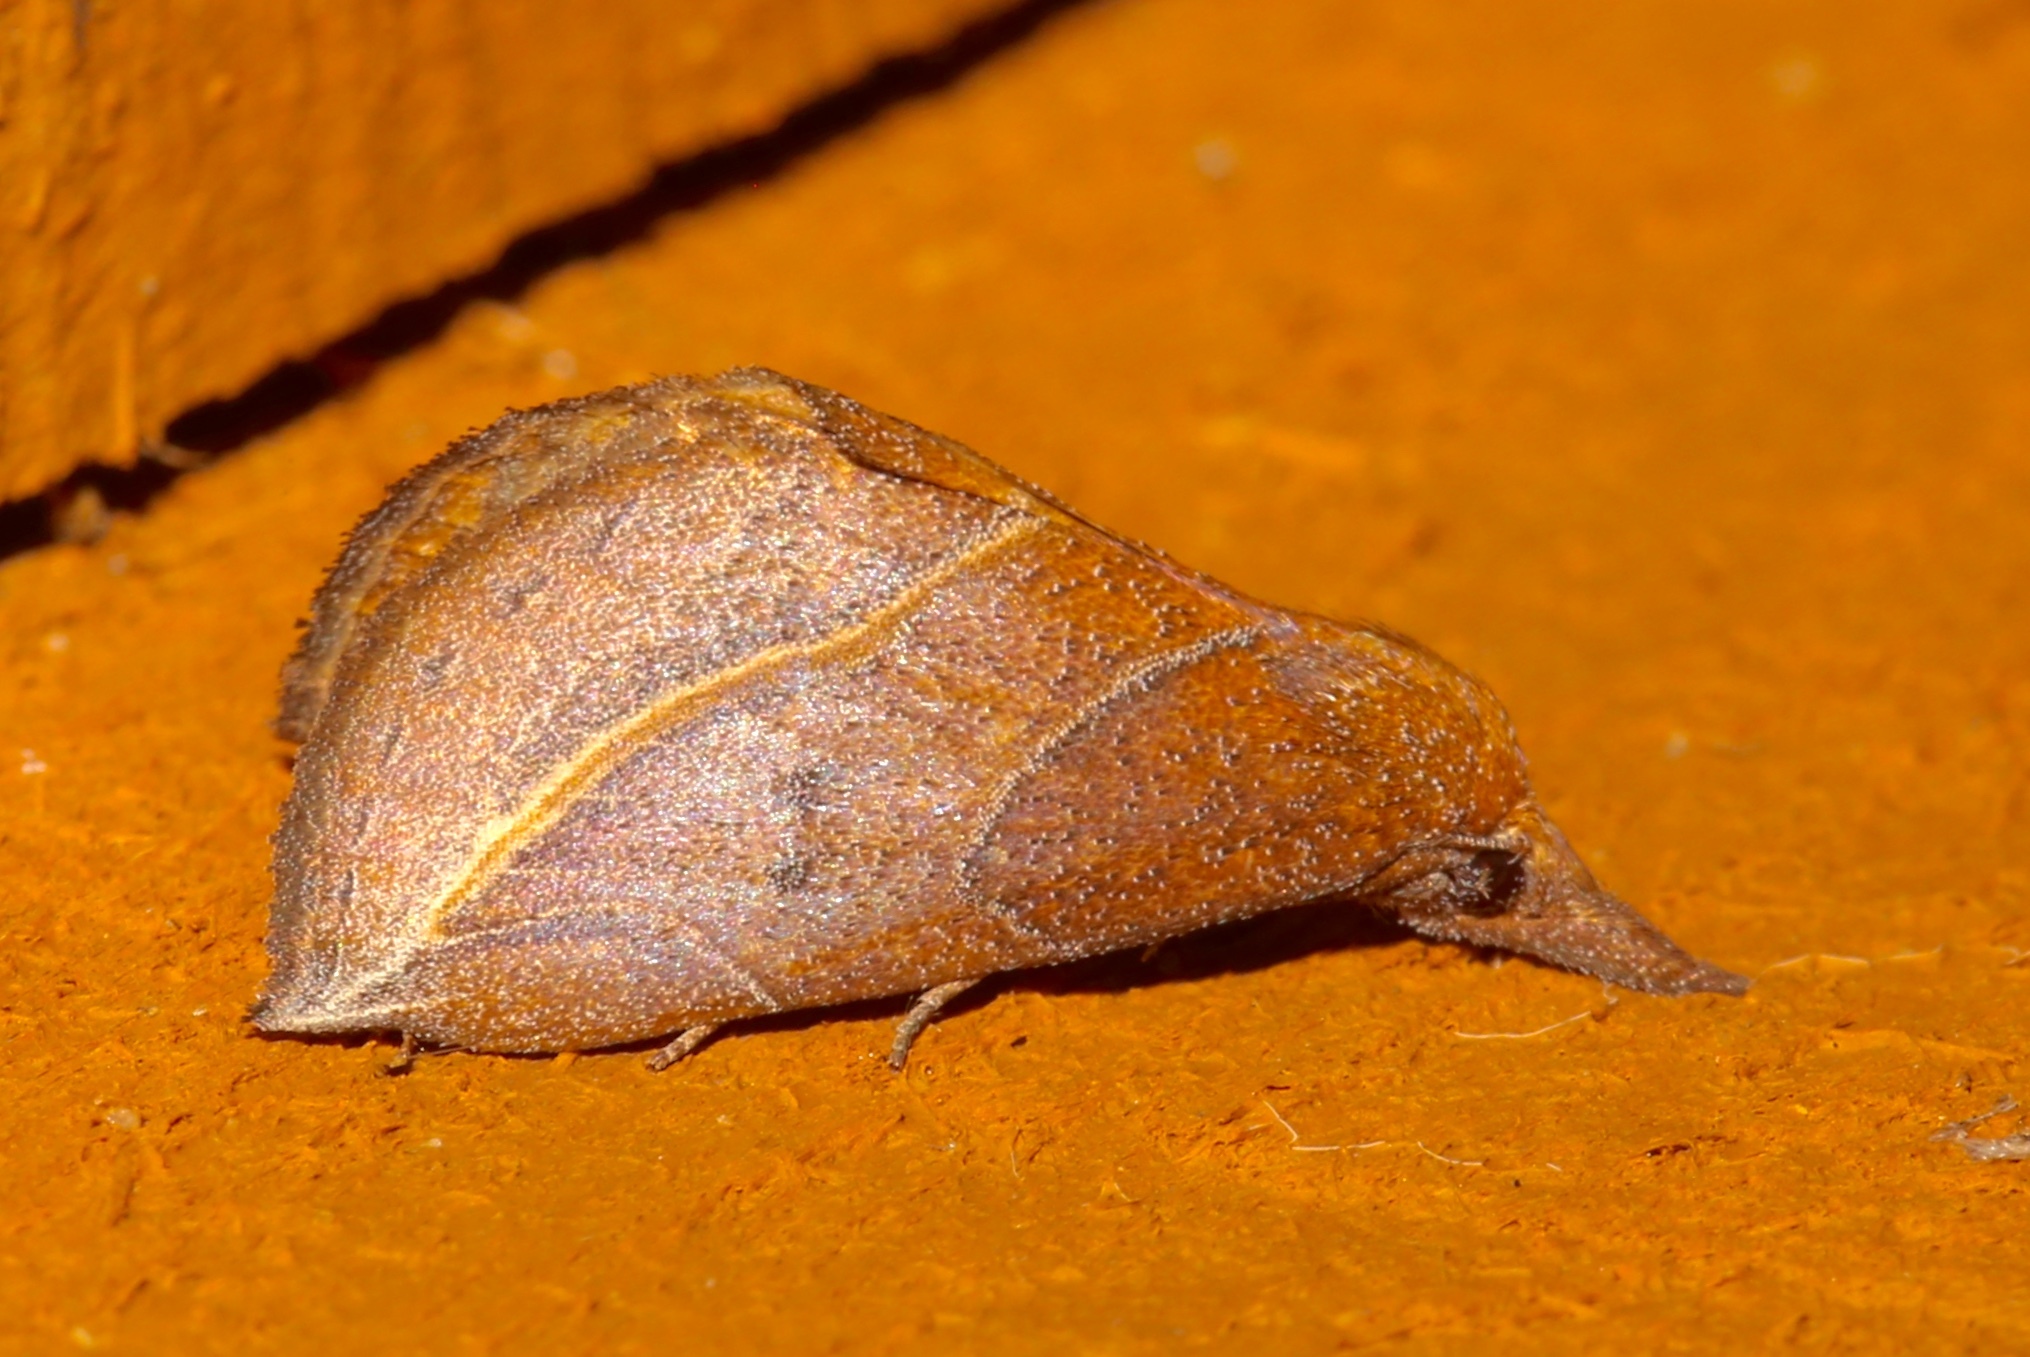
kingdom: Animalia
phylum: Arthropoda
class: Insecta
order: Lepidoptera
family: Erebidae
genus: Phyprosopus
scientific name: Phyprosopus callitrichoides
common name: Curved-lined owlet
